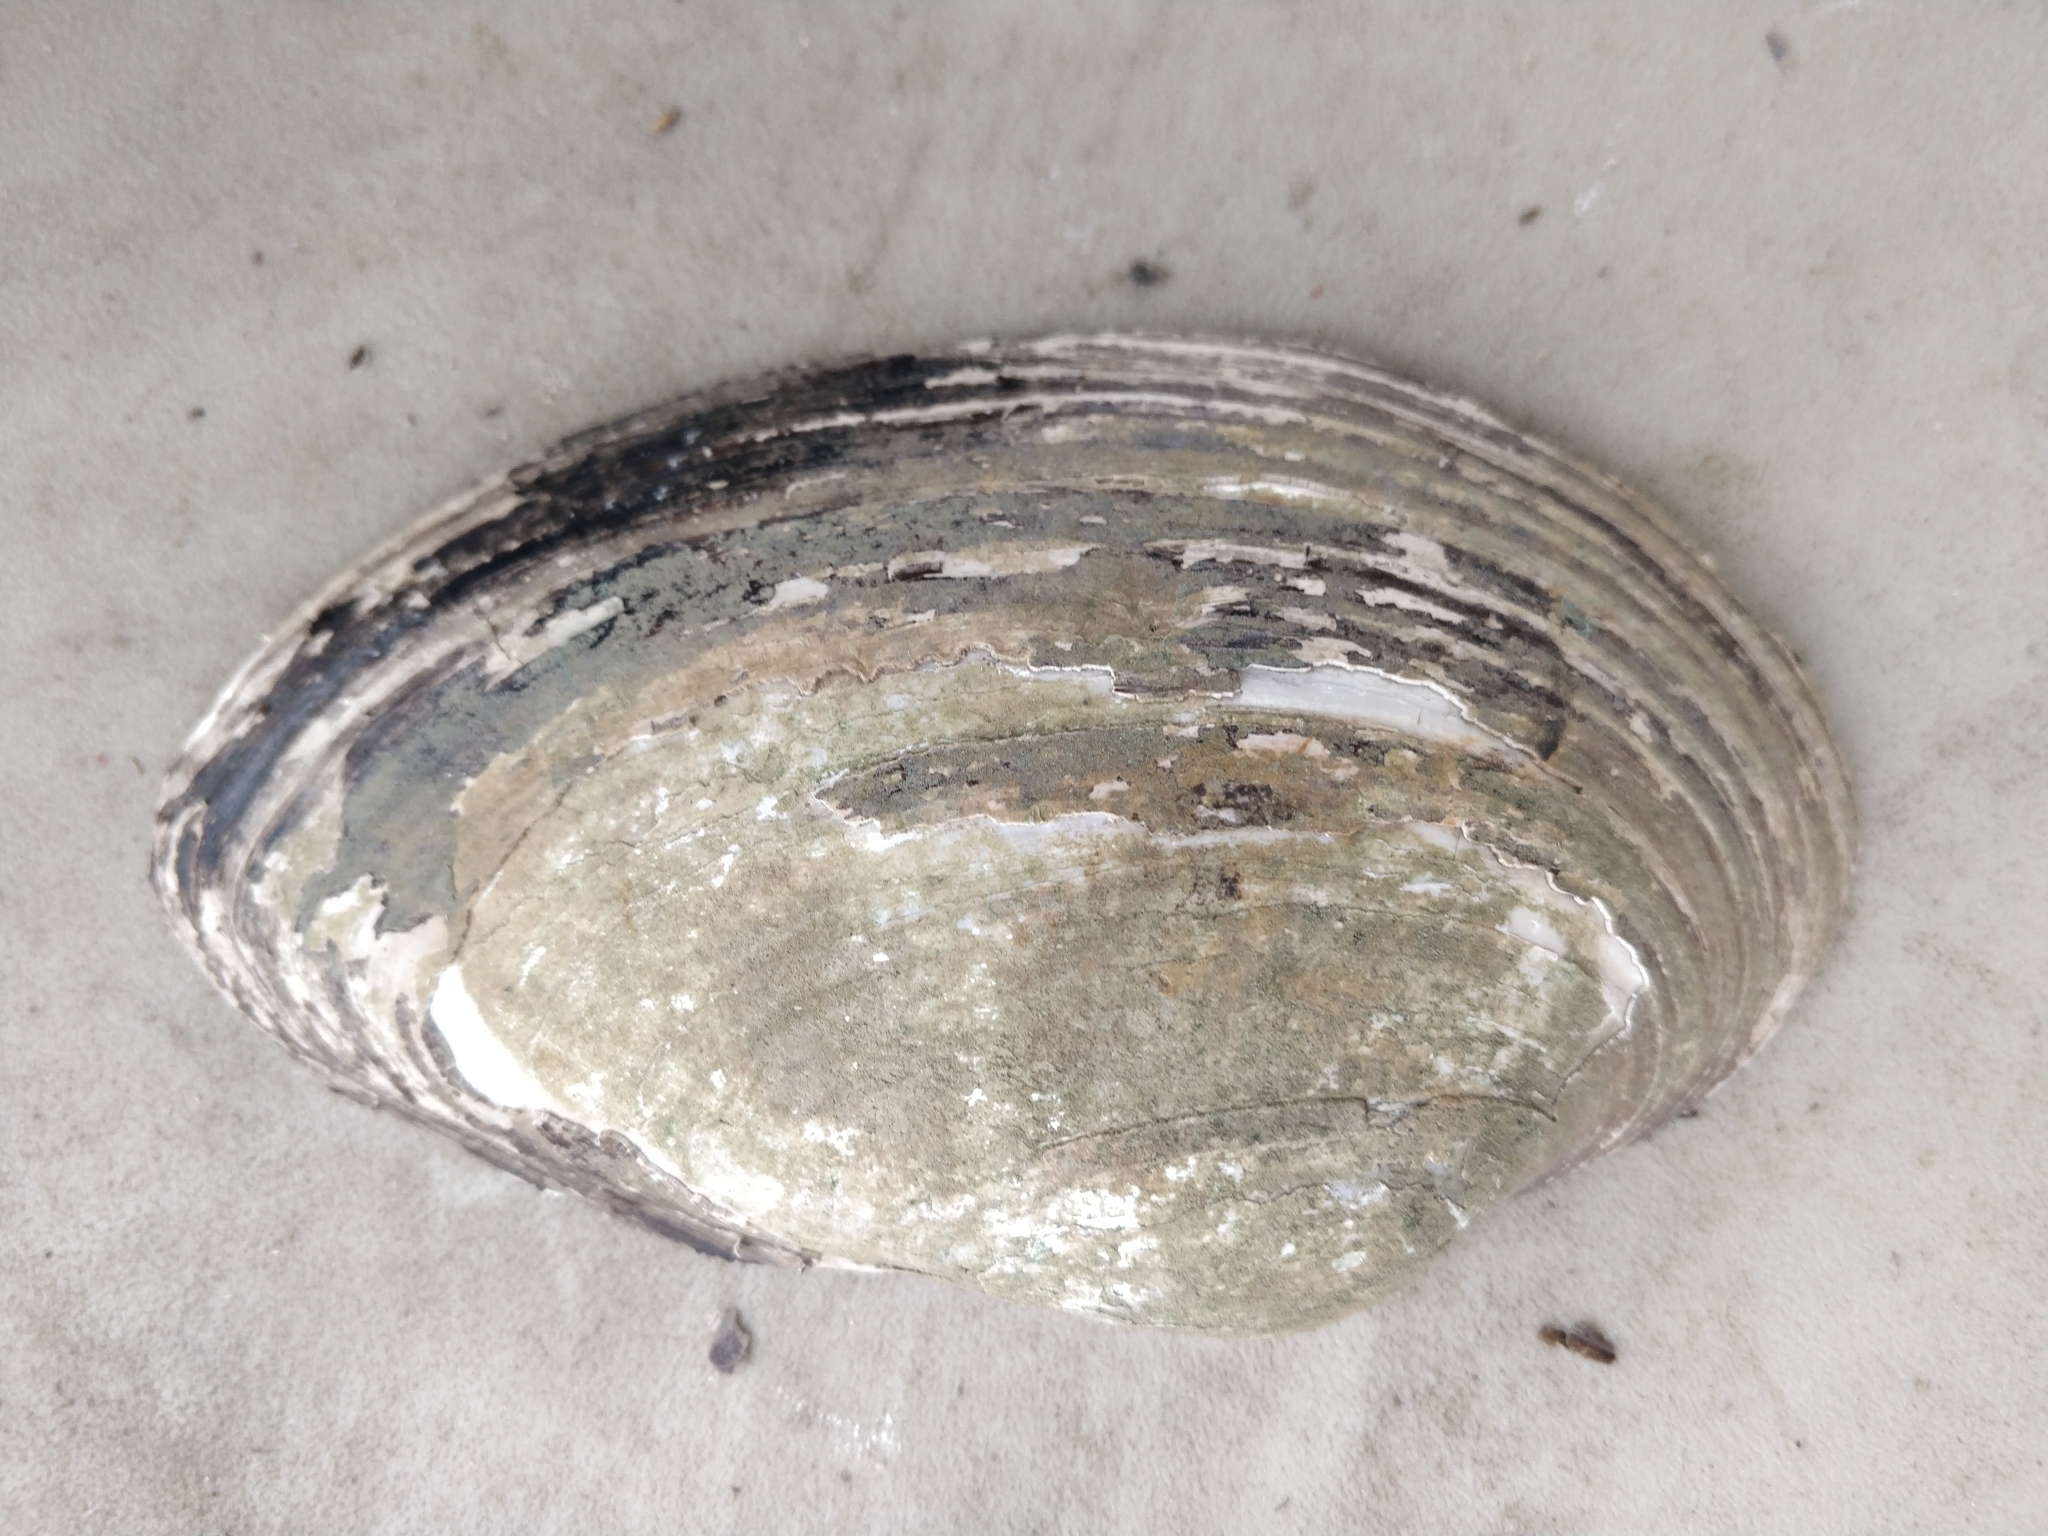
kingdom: Animalia
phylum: Mollusca
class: Bivalvia
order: Unionida
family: Unionidae
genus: Pyganodon
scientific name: Pyganodon grandis
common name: Giant floater
